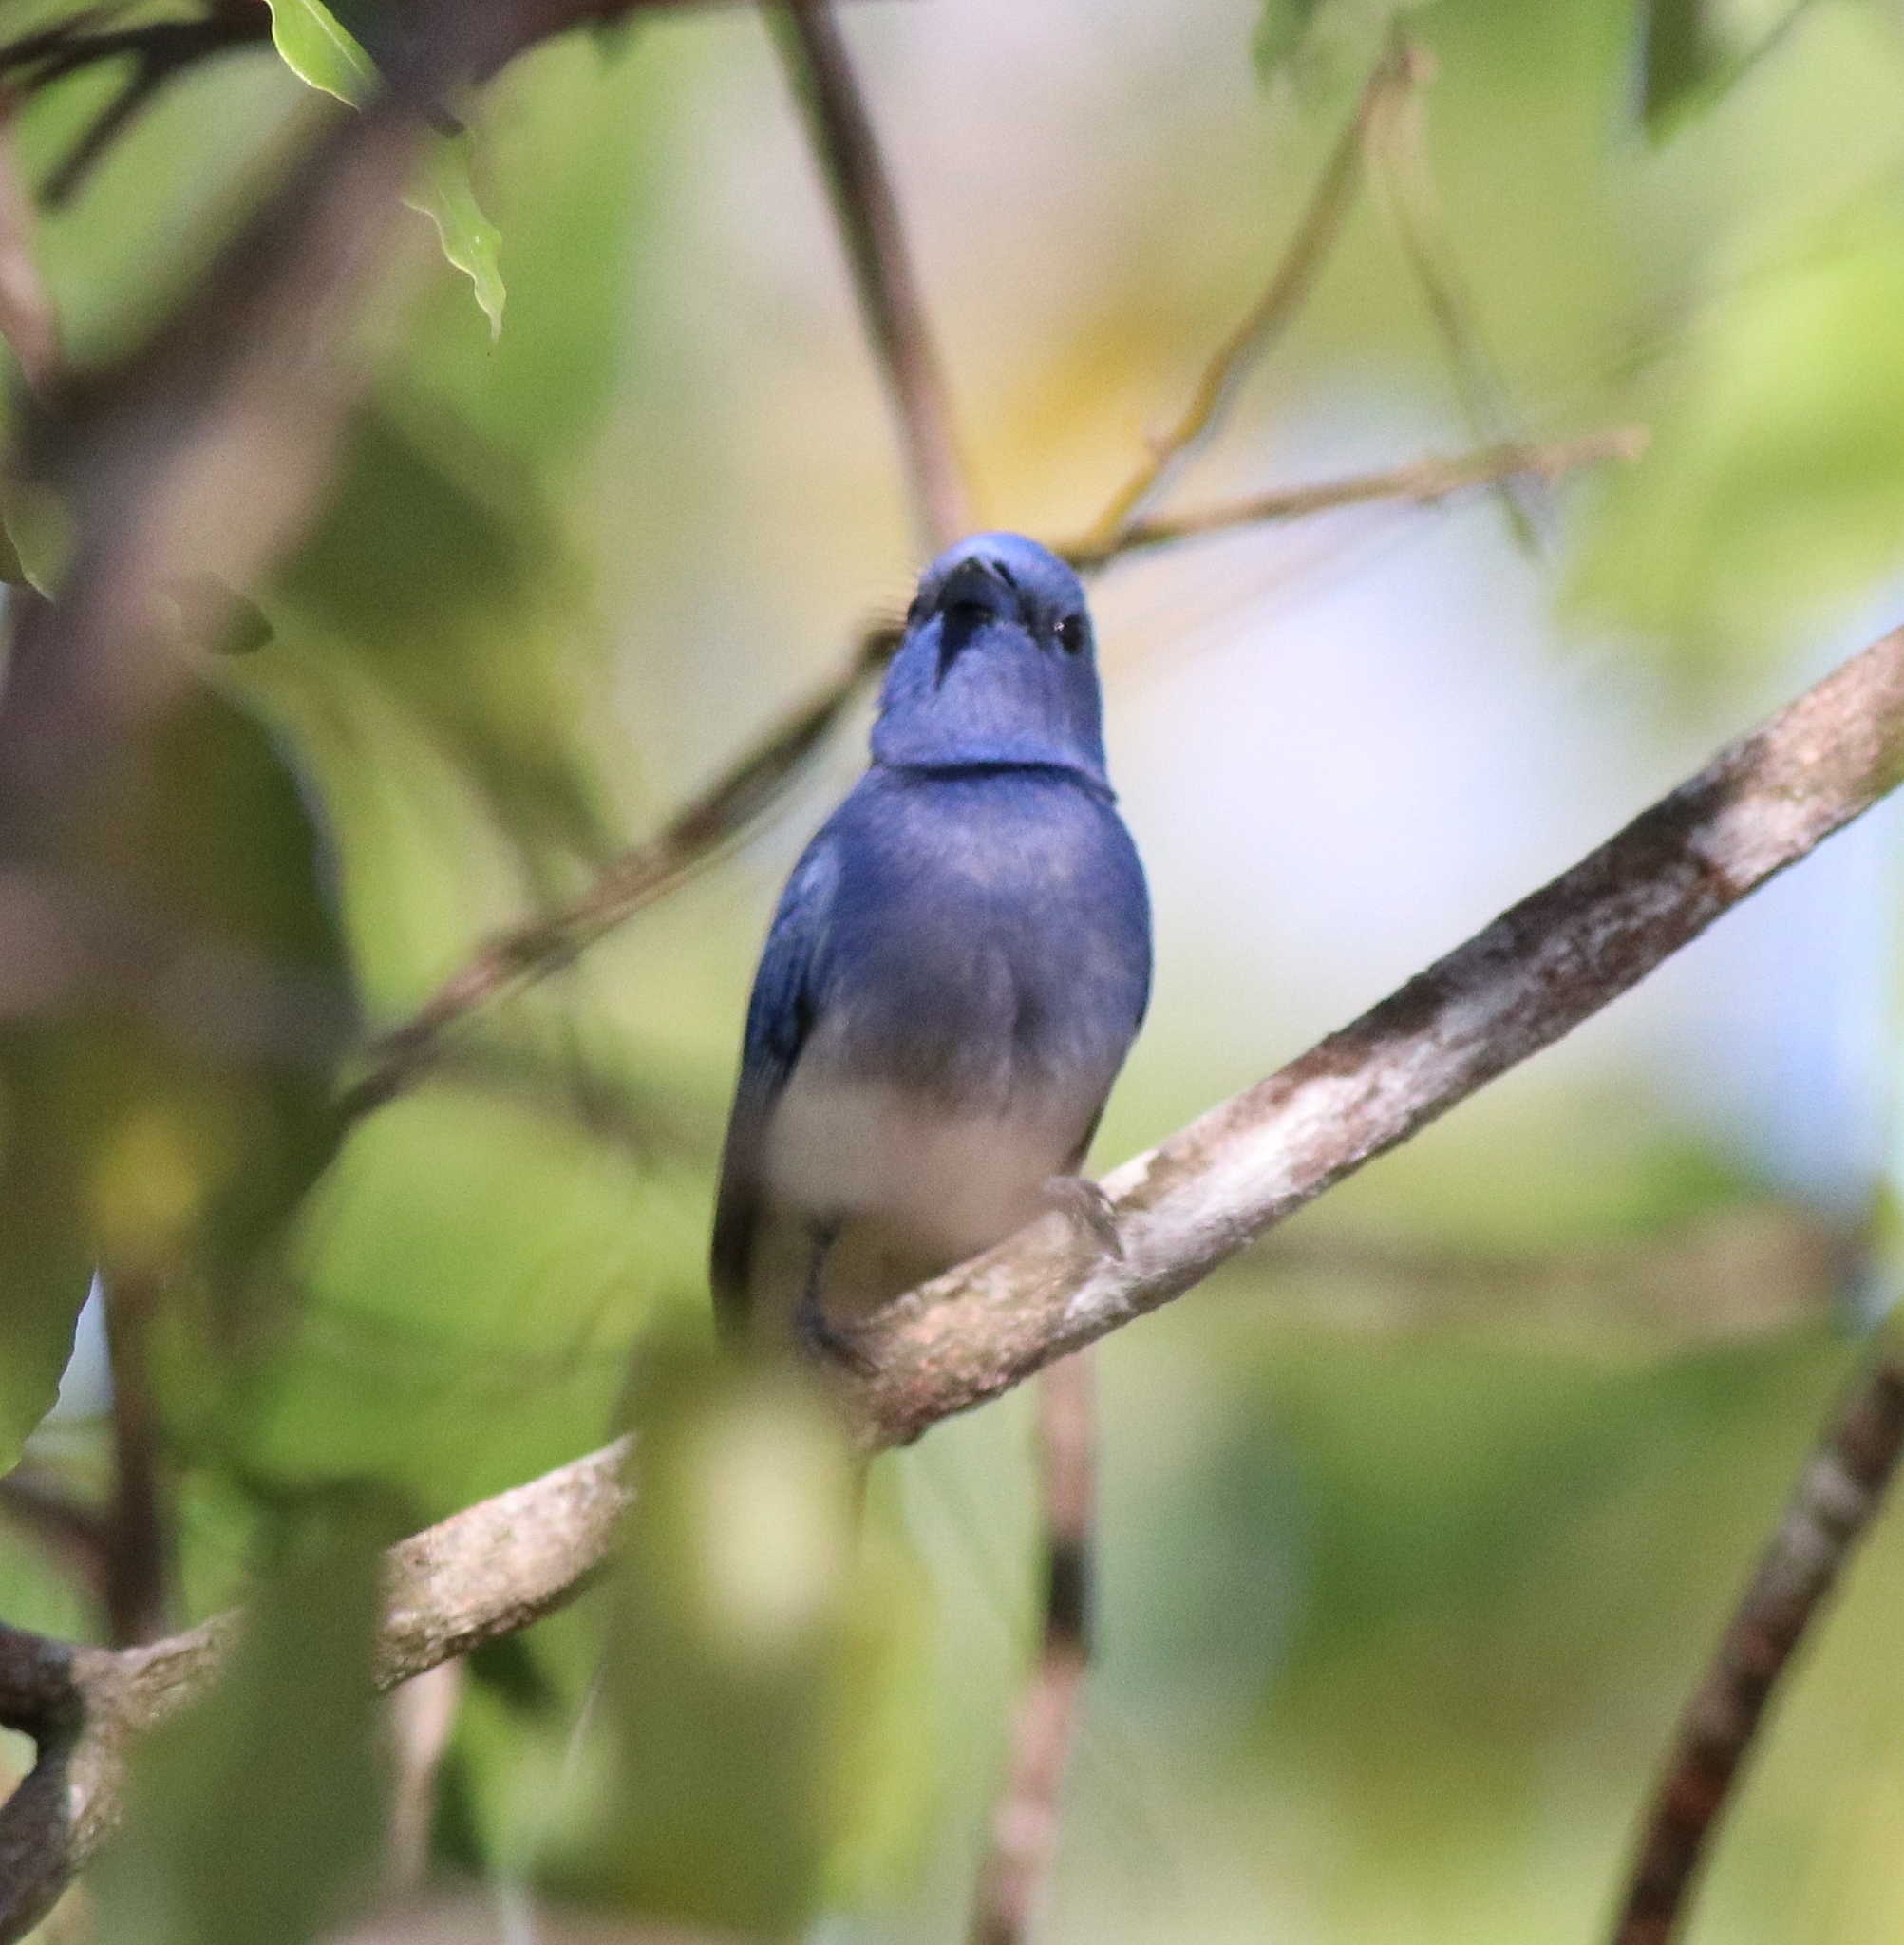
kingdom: Animalia
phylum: Chordata
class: Aves
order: Passeriformes
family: Monarchidae
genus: Hypothymis
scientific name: Hypothymis azurea
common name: Black-naped monarch
